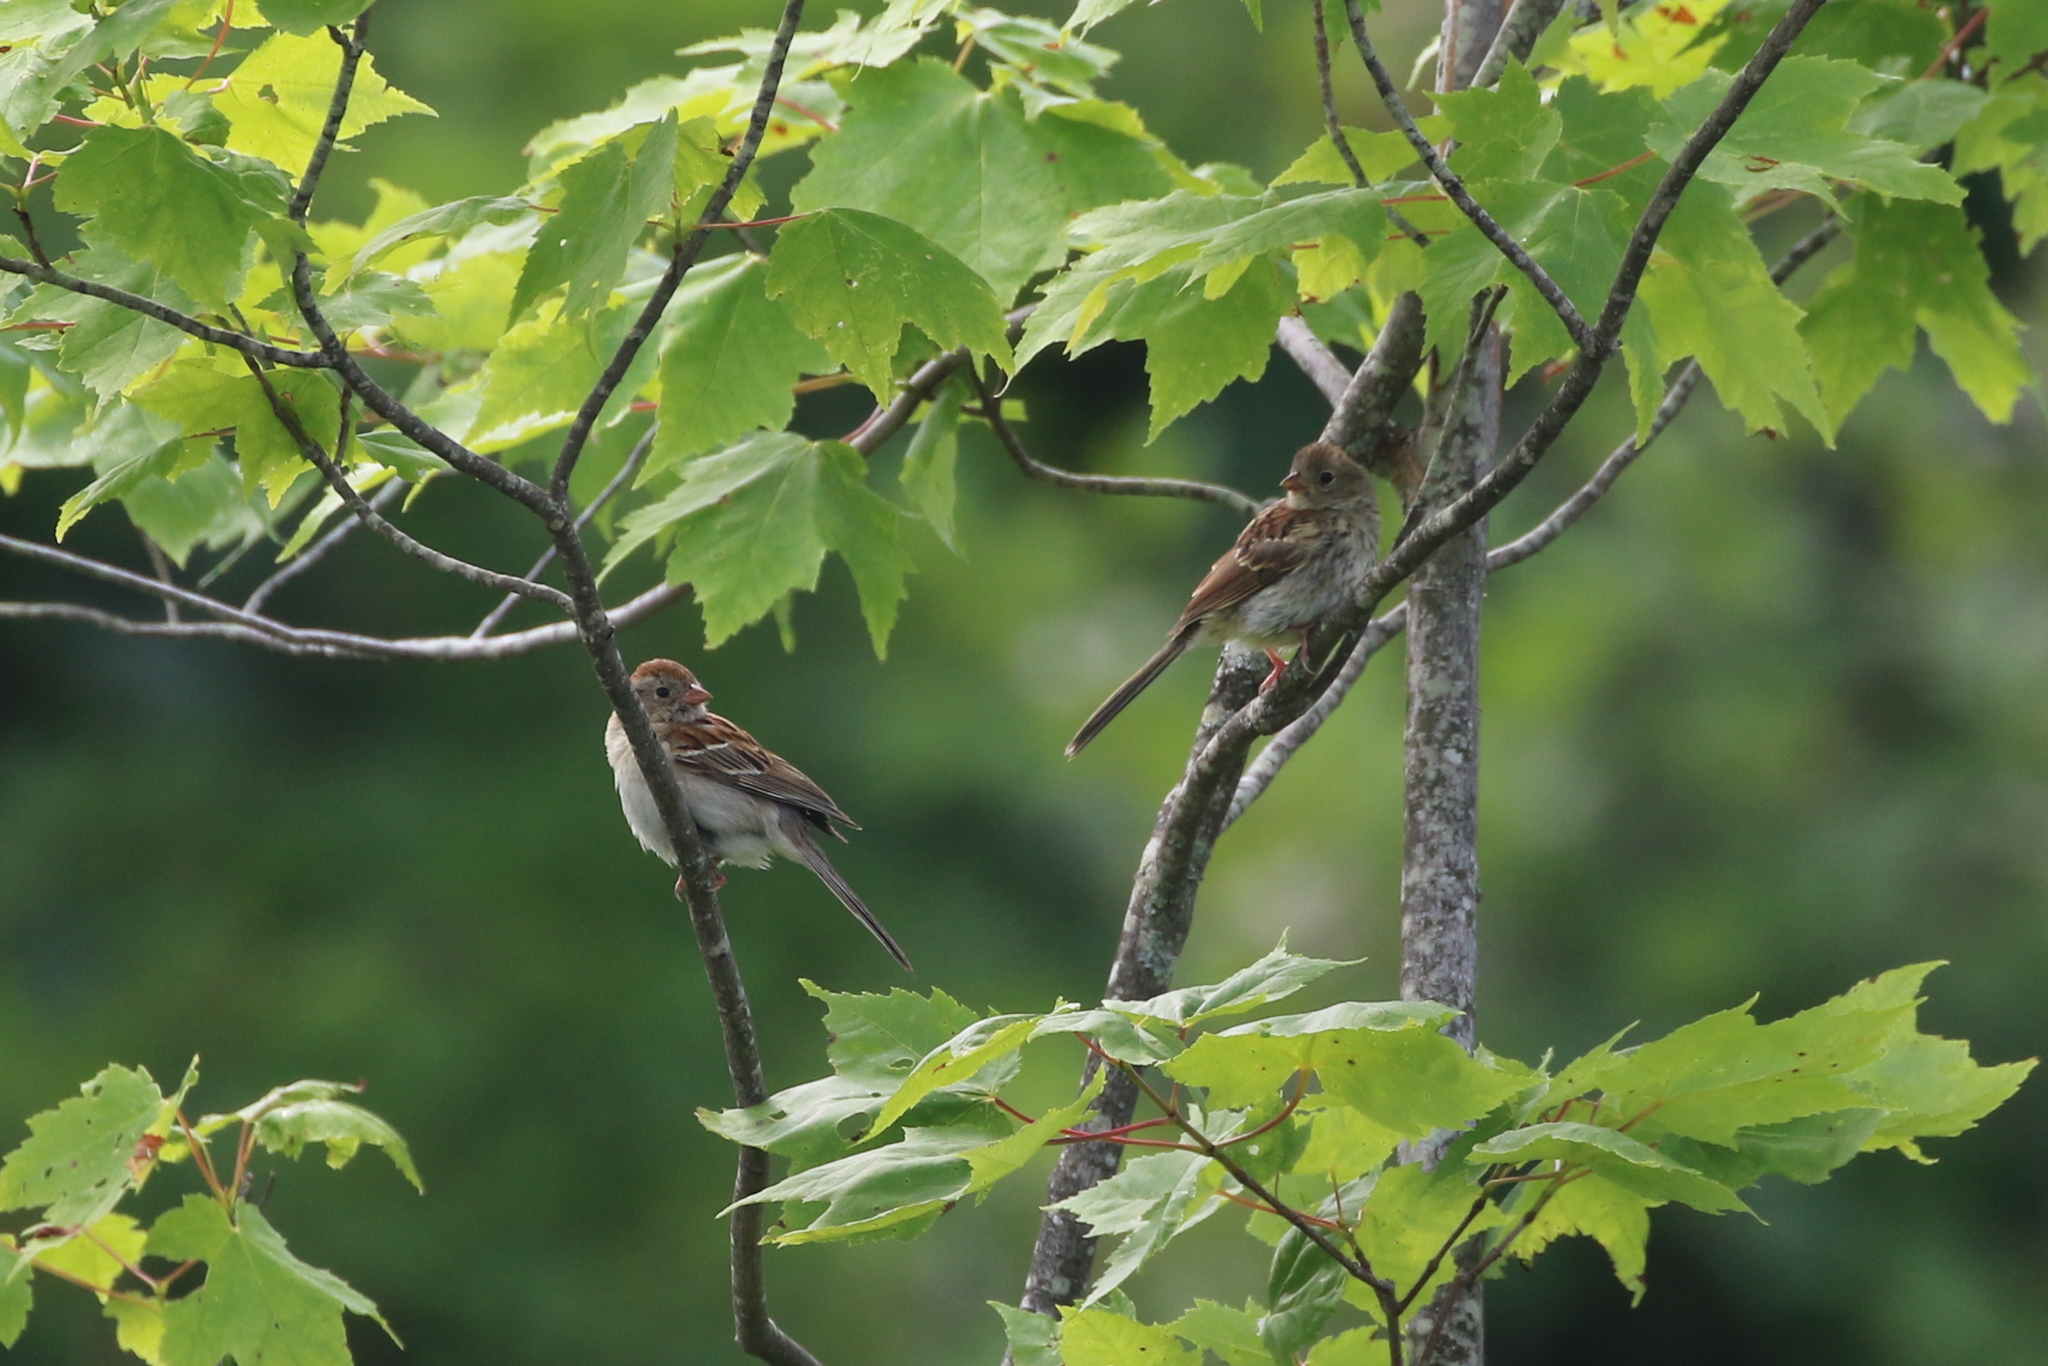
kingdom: Animalia
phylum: Chordata
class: Aves
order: Passeriformes
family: Passerellidae
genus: Spizella
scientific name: Spizella pusilla
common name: Field sparrow
